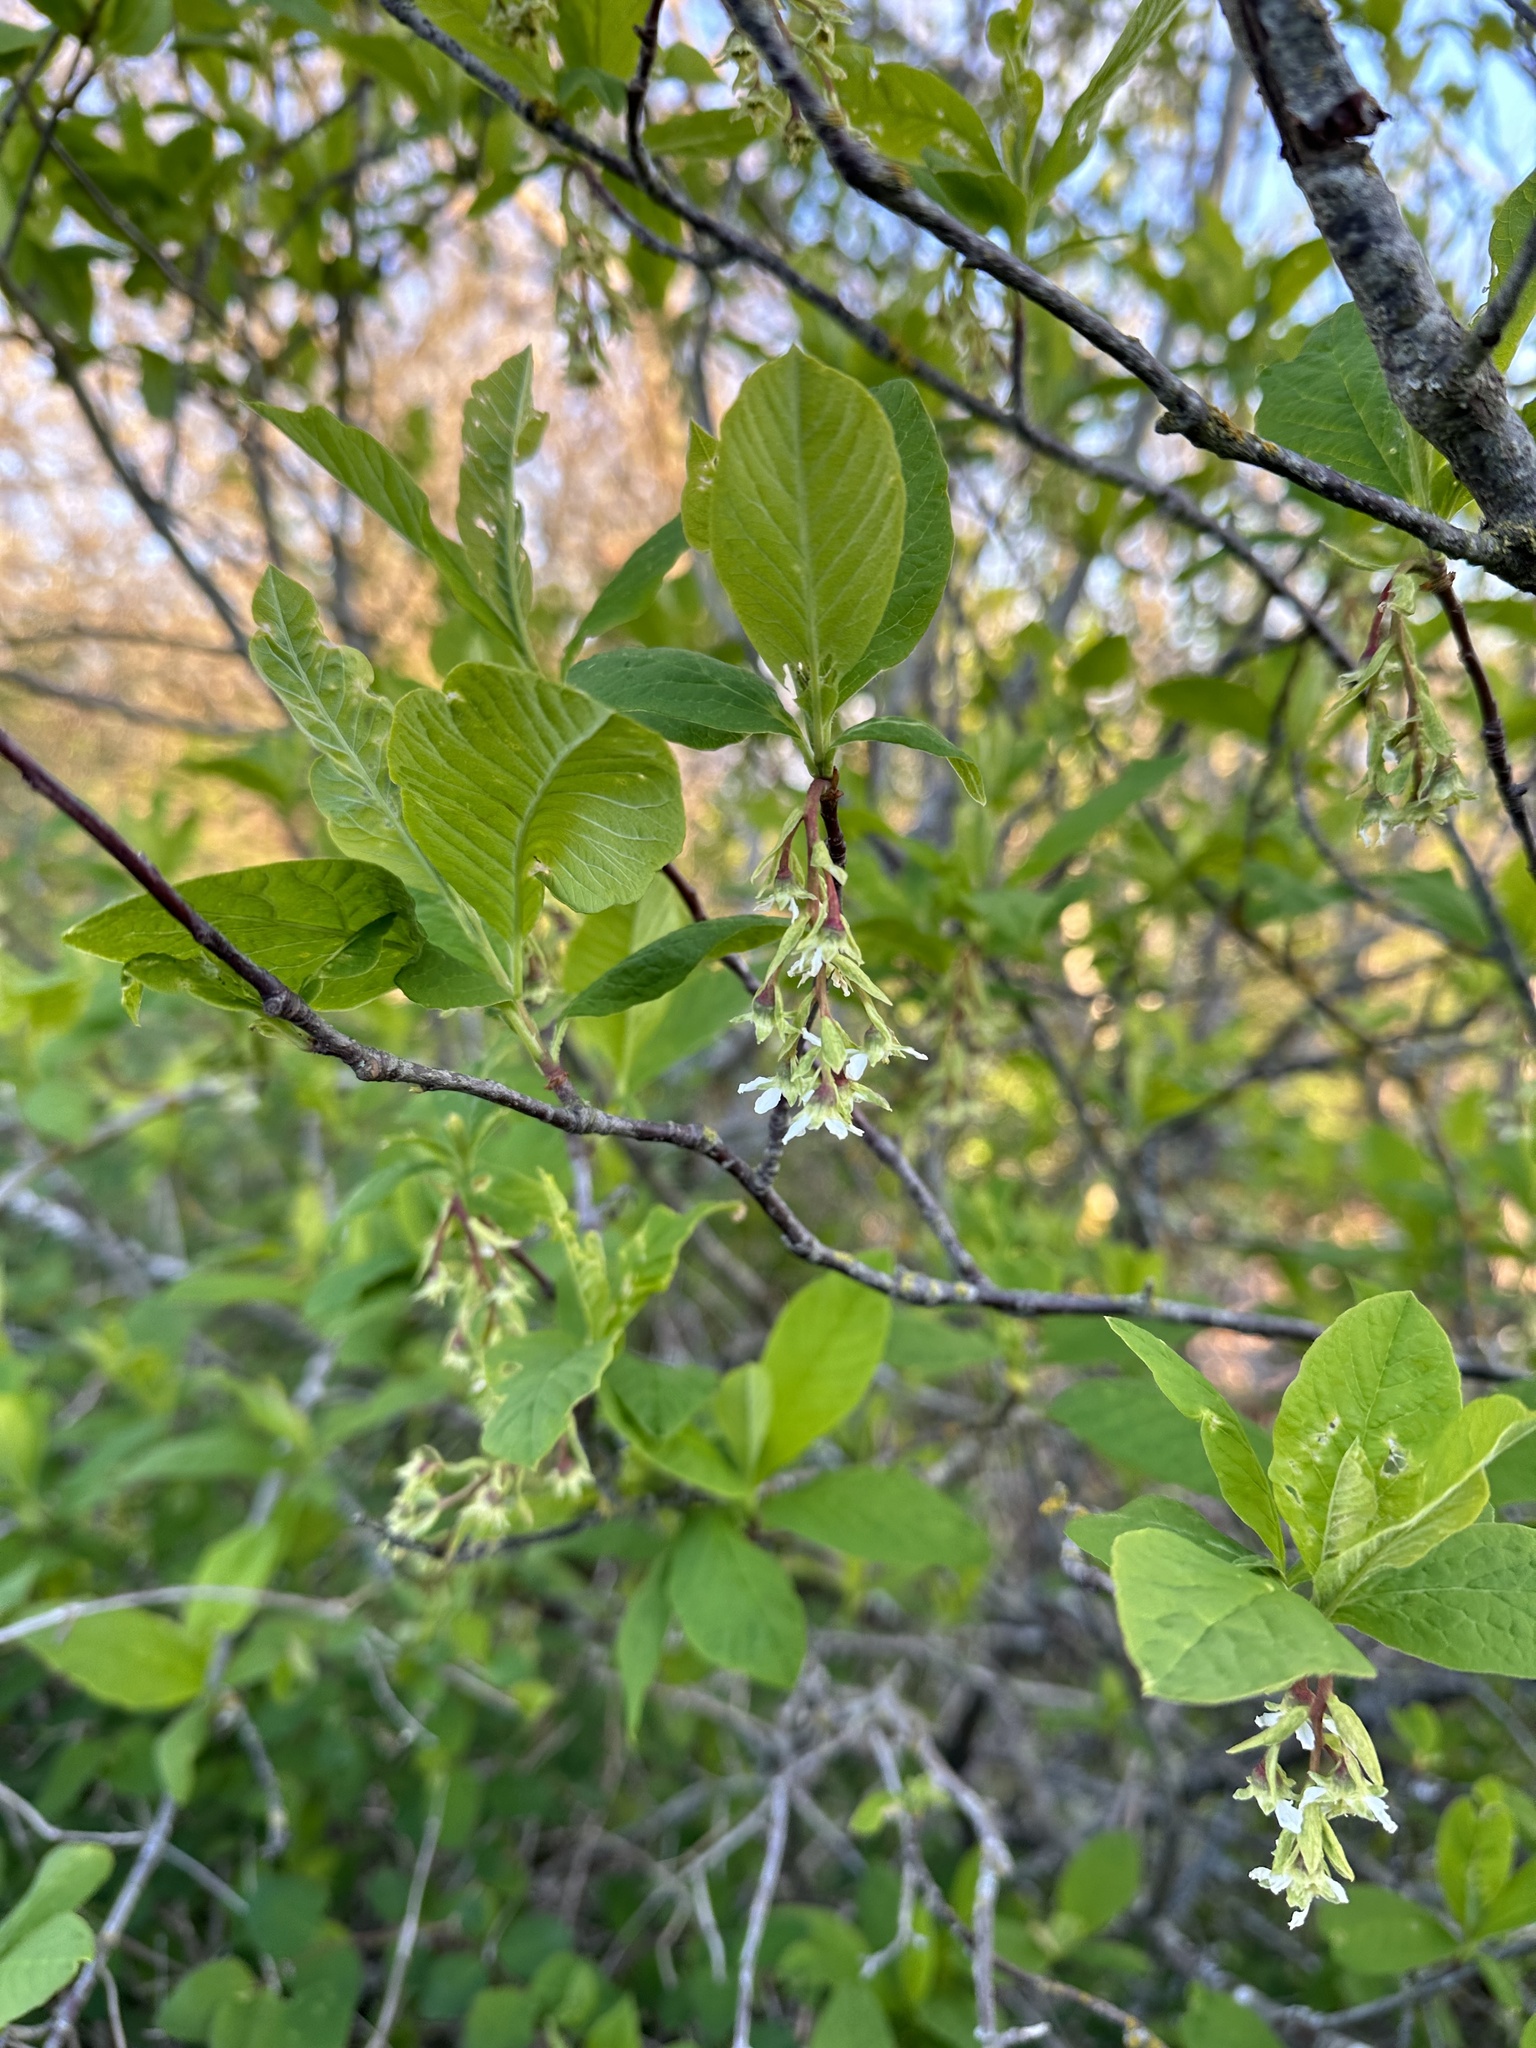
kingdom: Plantae
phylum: Tracheophyta
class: Magnoliopsida
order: Rosales
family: Rosaceae
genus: Oemleria
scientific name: Oemleria cerasiformis
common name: Osoberry
